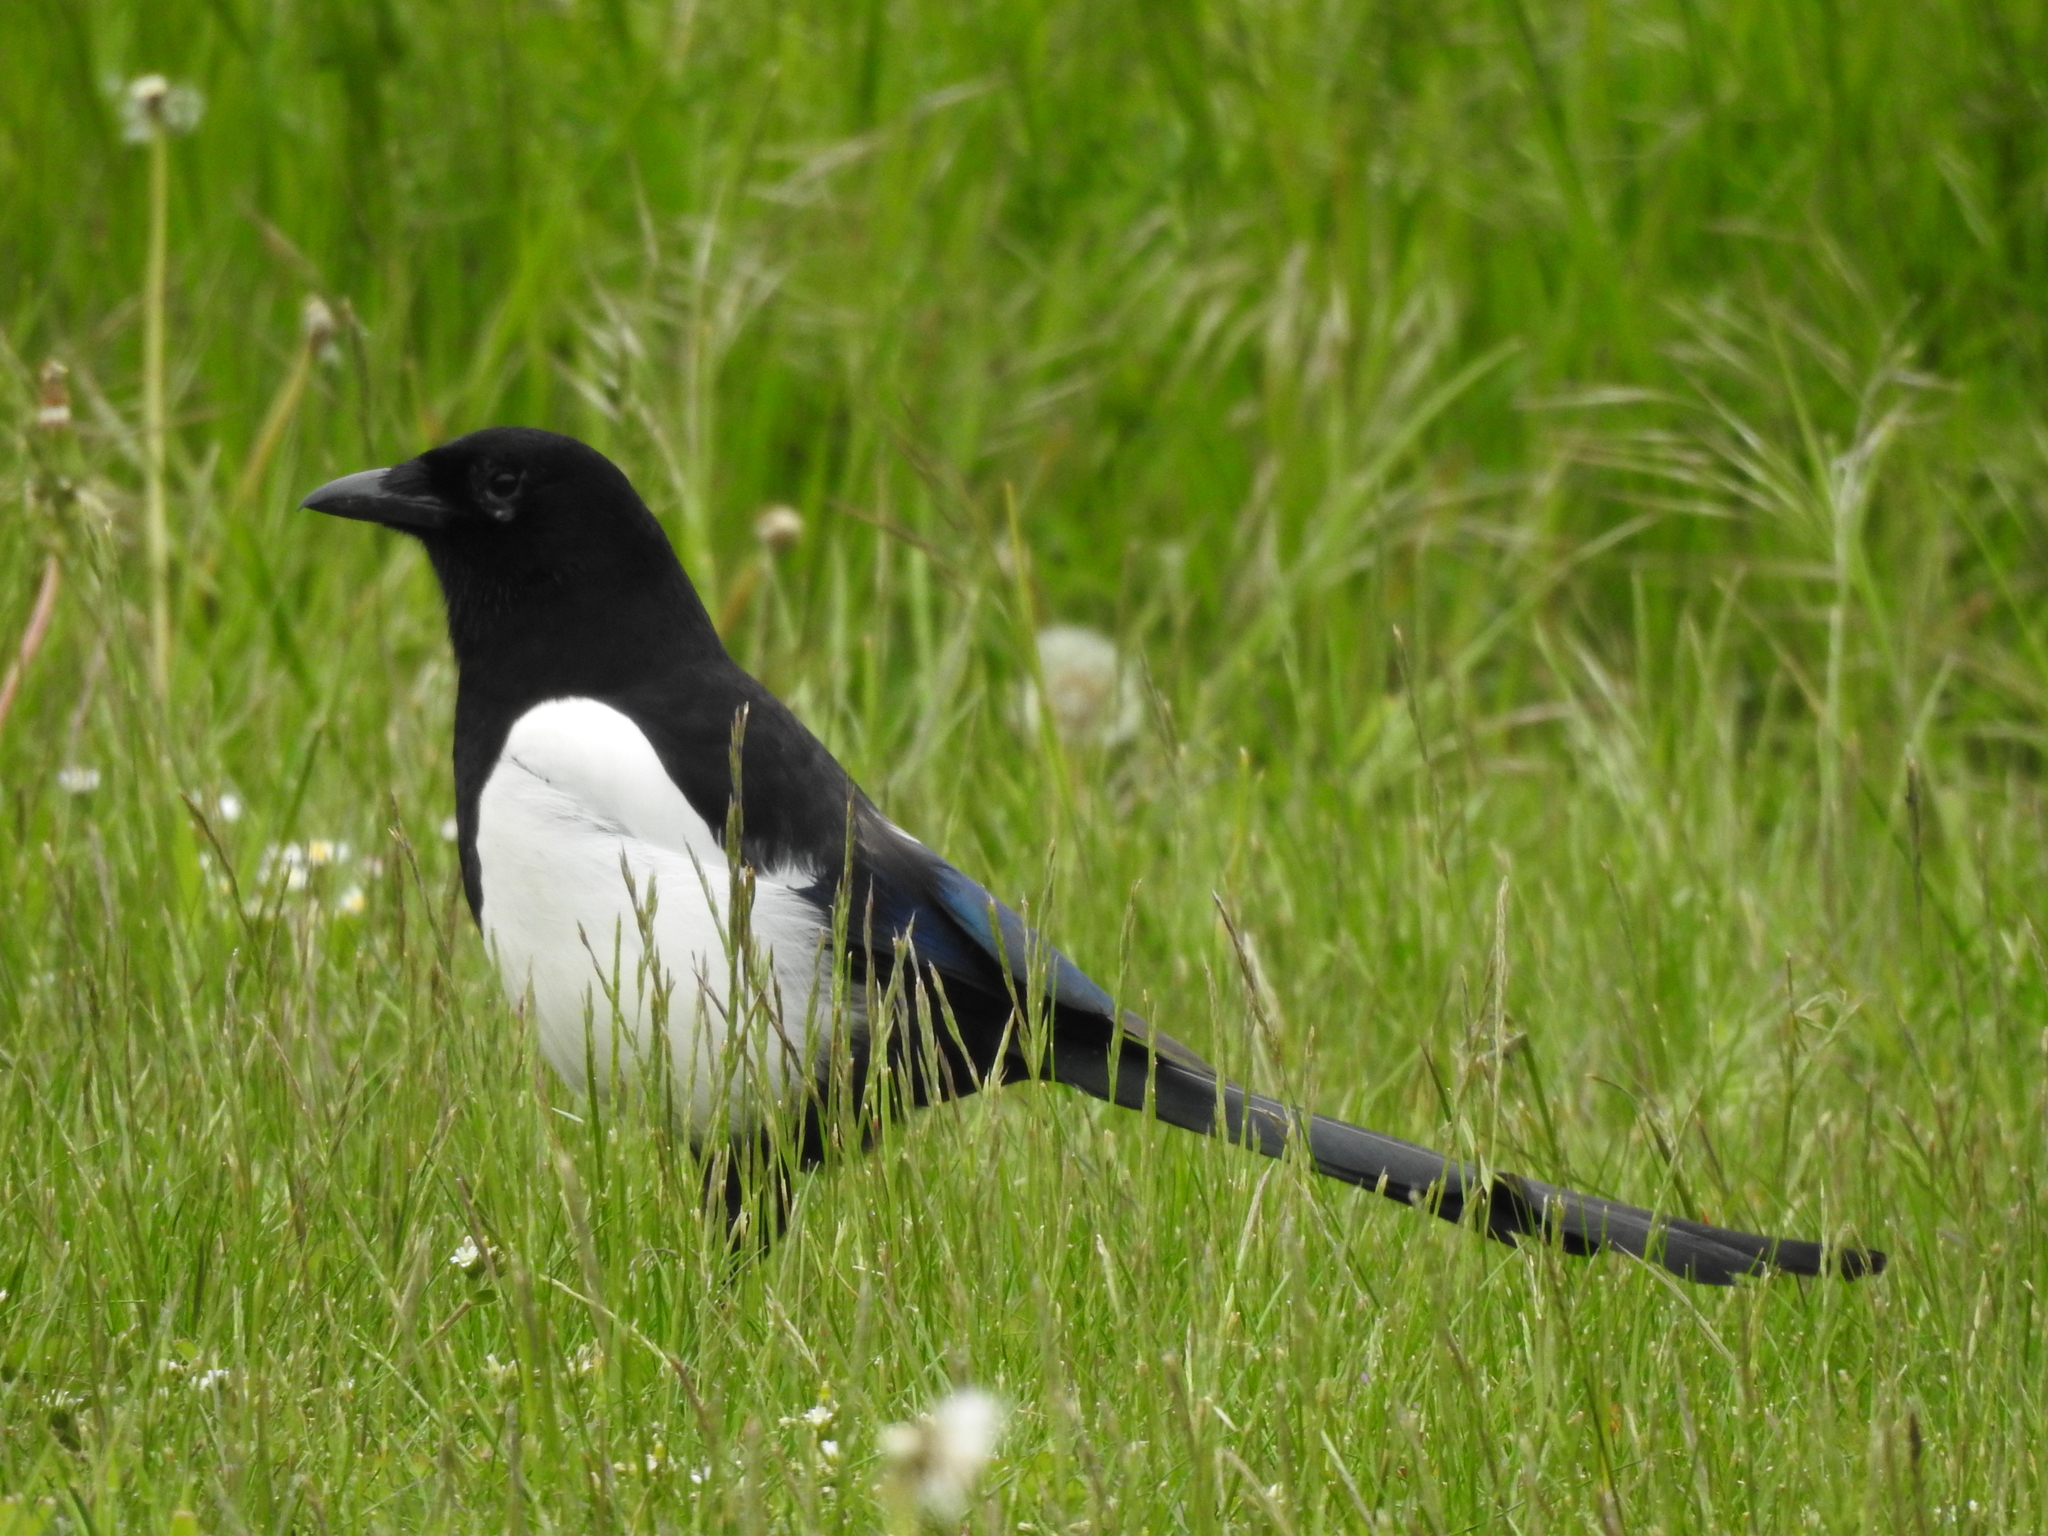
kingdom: Animalia
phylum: Chordata
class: Aves
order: Passeriformes
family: Corvidae
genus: Pica
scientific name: Pica pica
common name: Eurasian magpie
